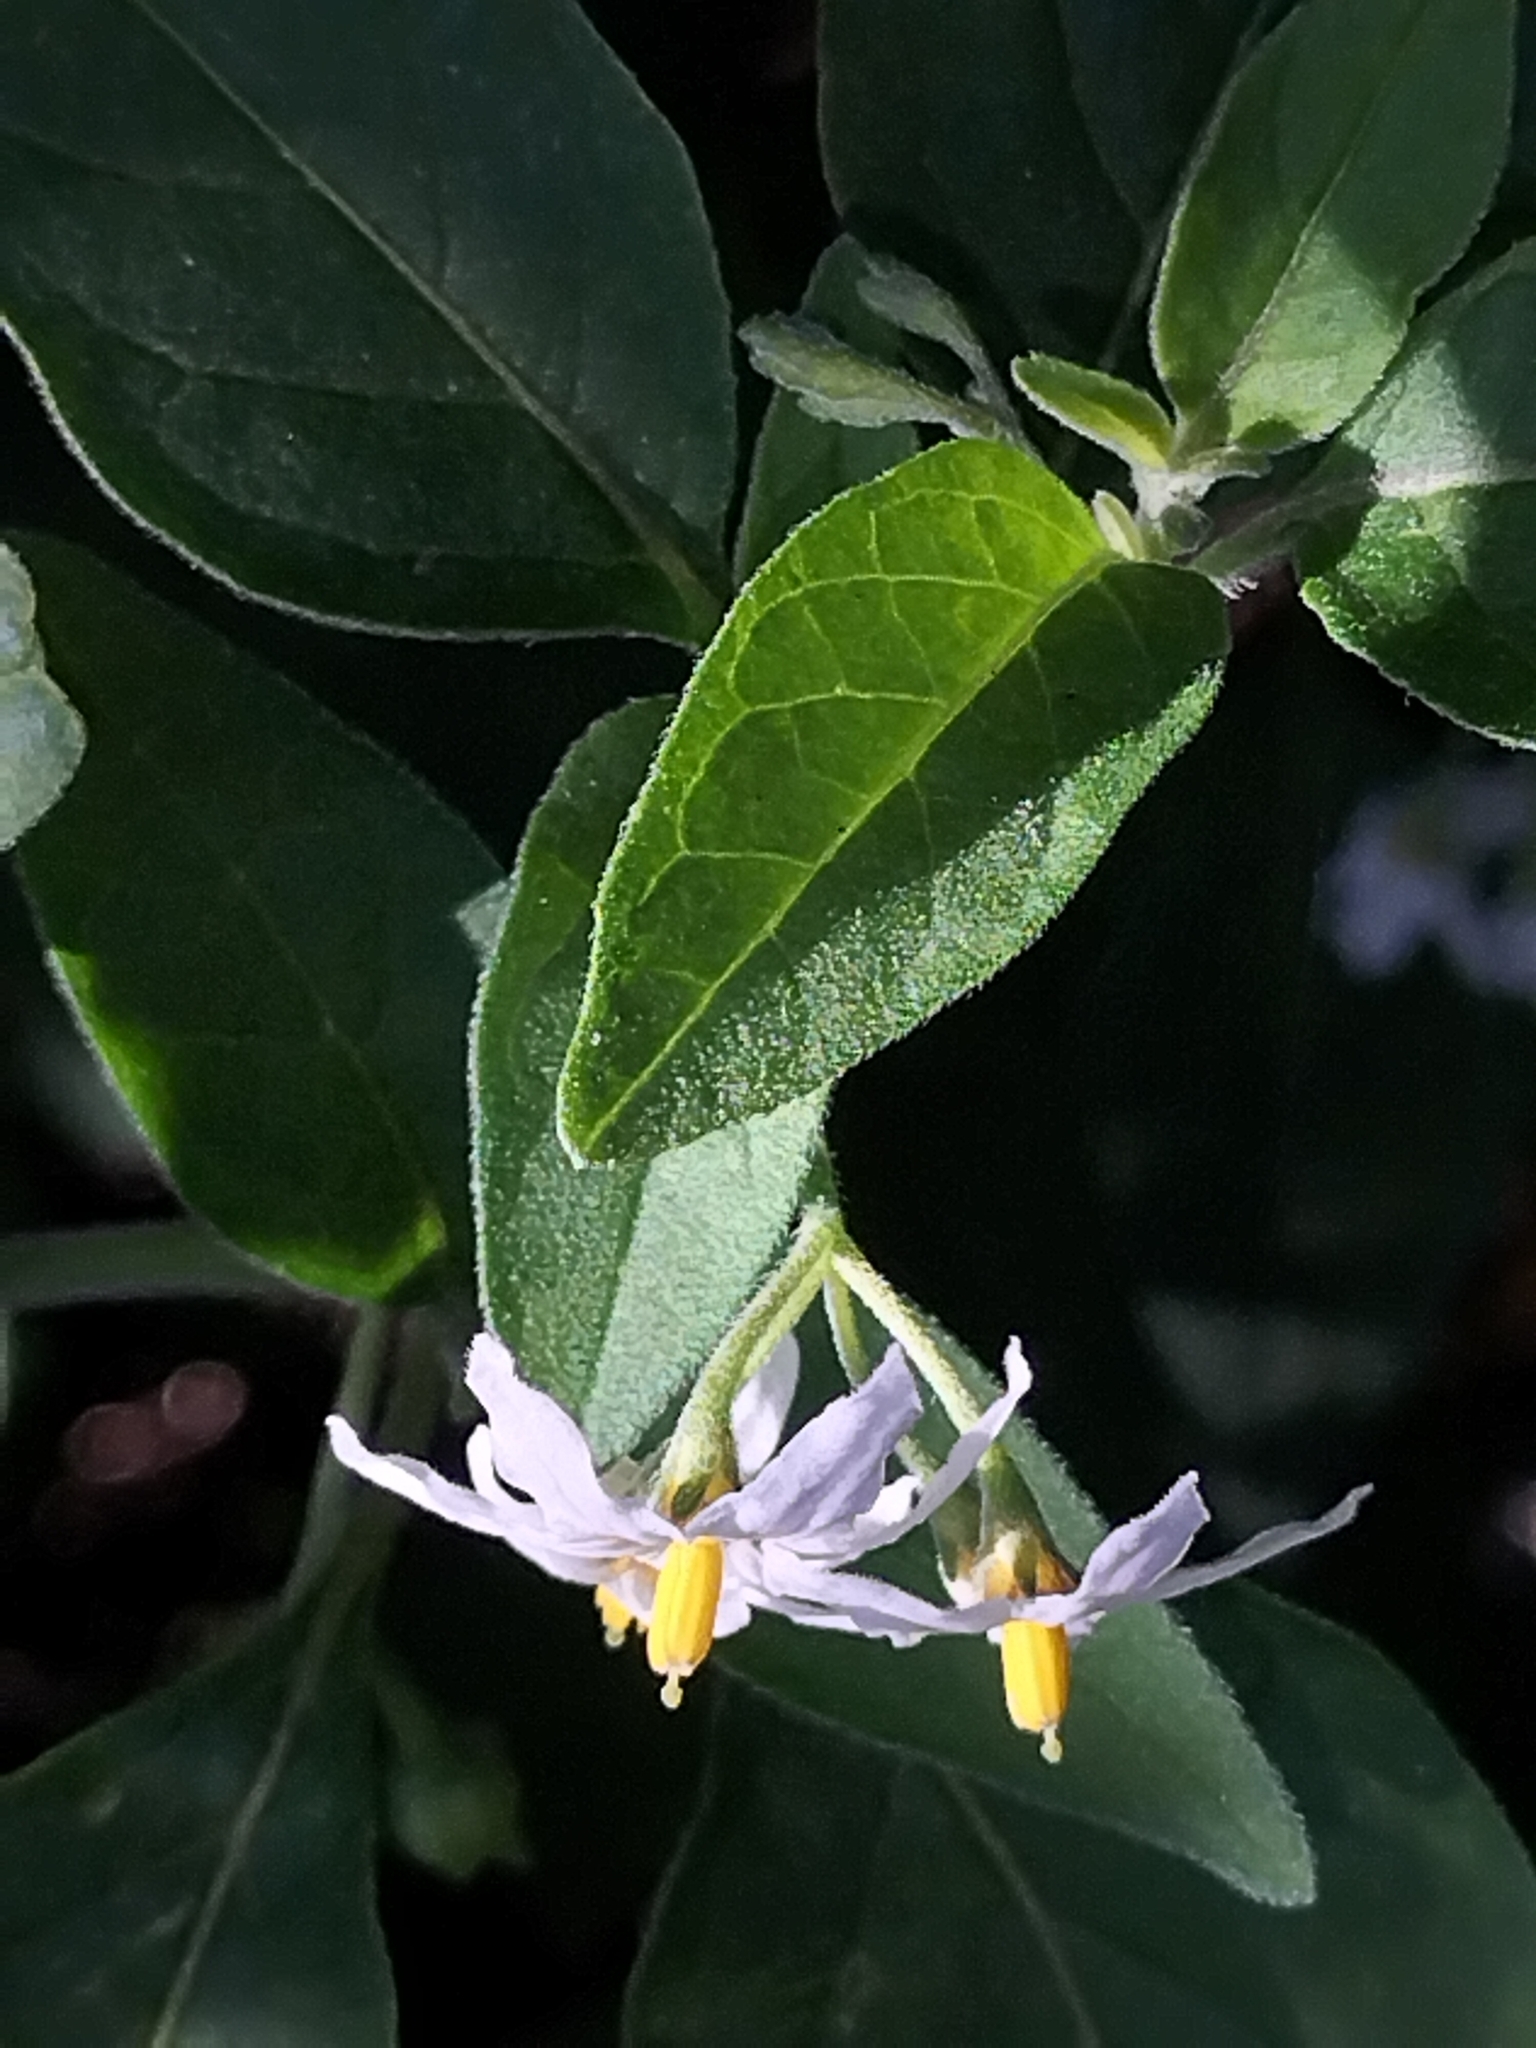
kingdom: Plantae
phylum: Tracheophyta
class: Magnoliopsida
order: Solanales
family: Solanaceae
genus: Solanum
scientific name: Solanum chenopodioides
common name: Tall nightshade
